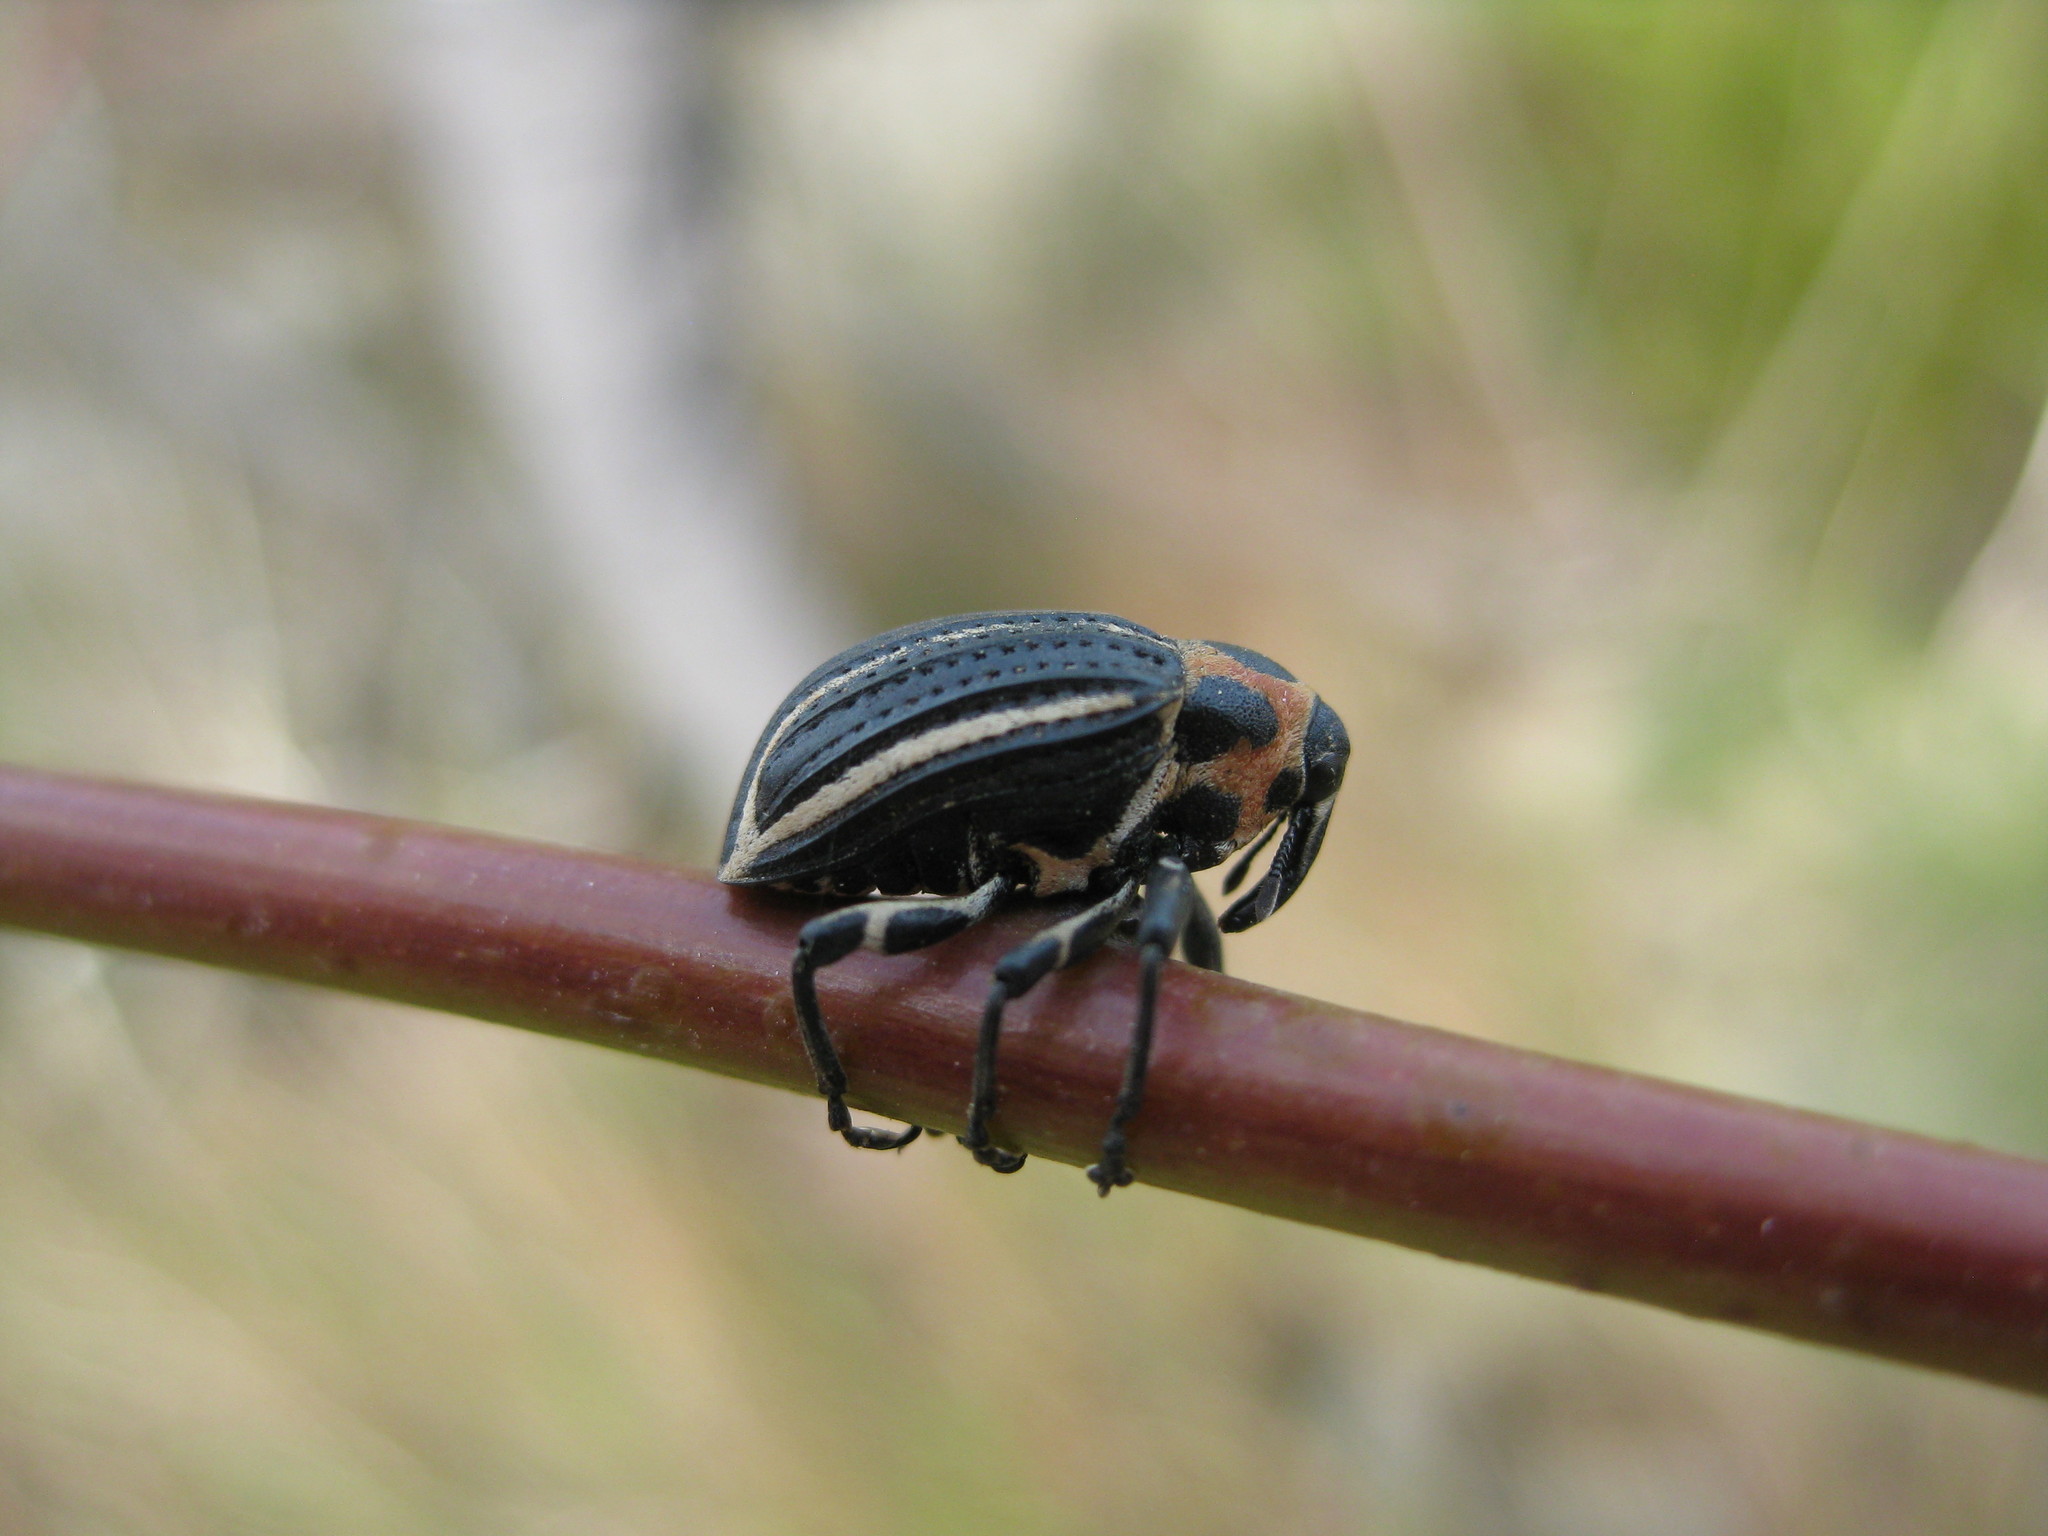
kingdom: Animalia
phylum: Arthropoda
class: Insecta
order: Coleoptera
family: Curculionidae
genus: Neodiplogrammus
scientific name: Neodiplogrammus
